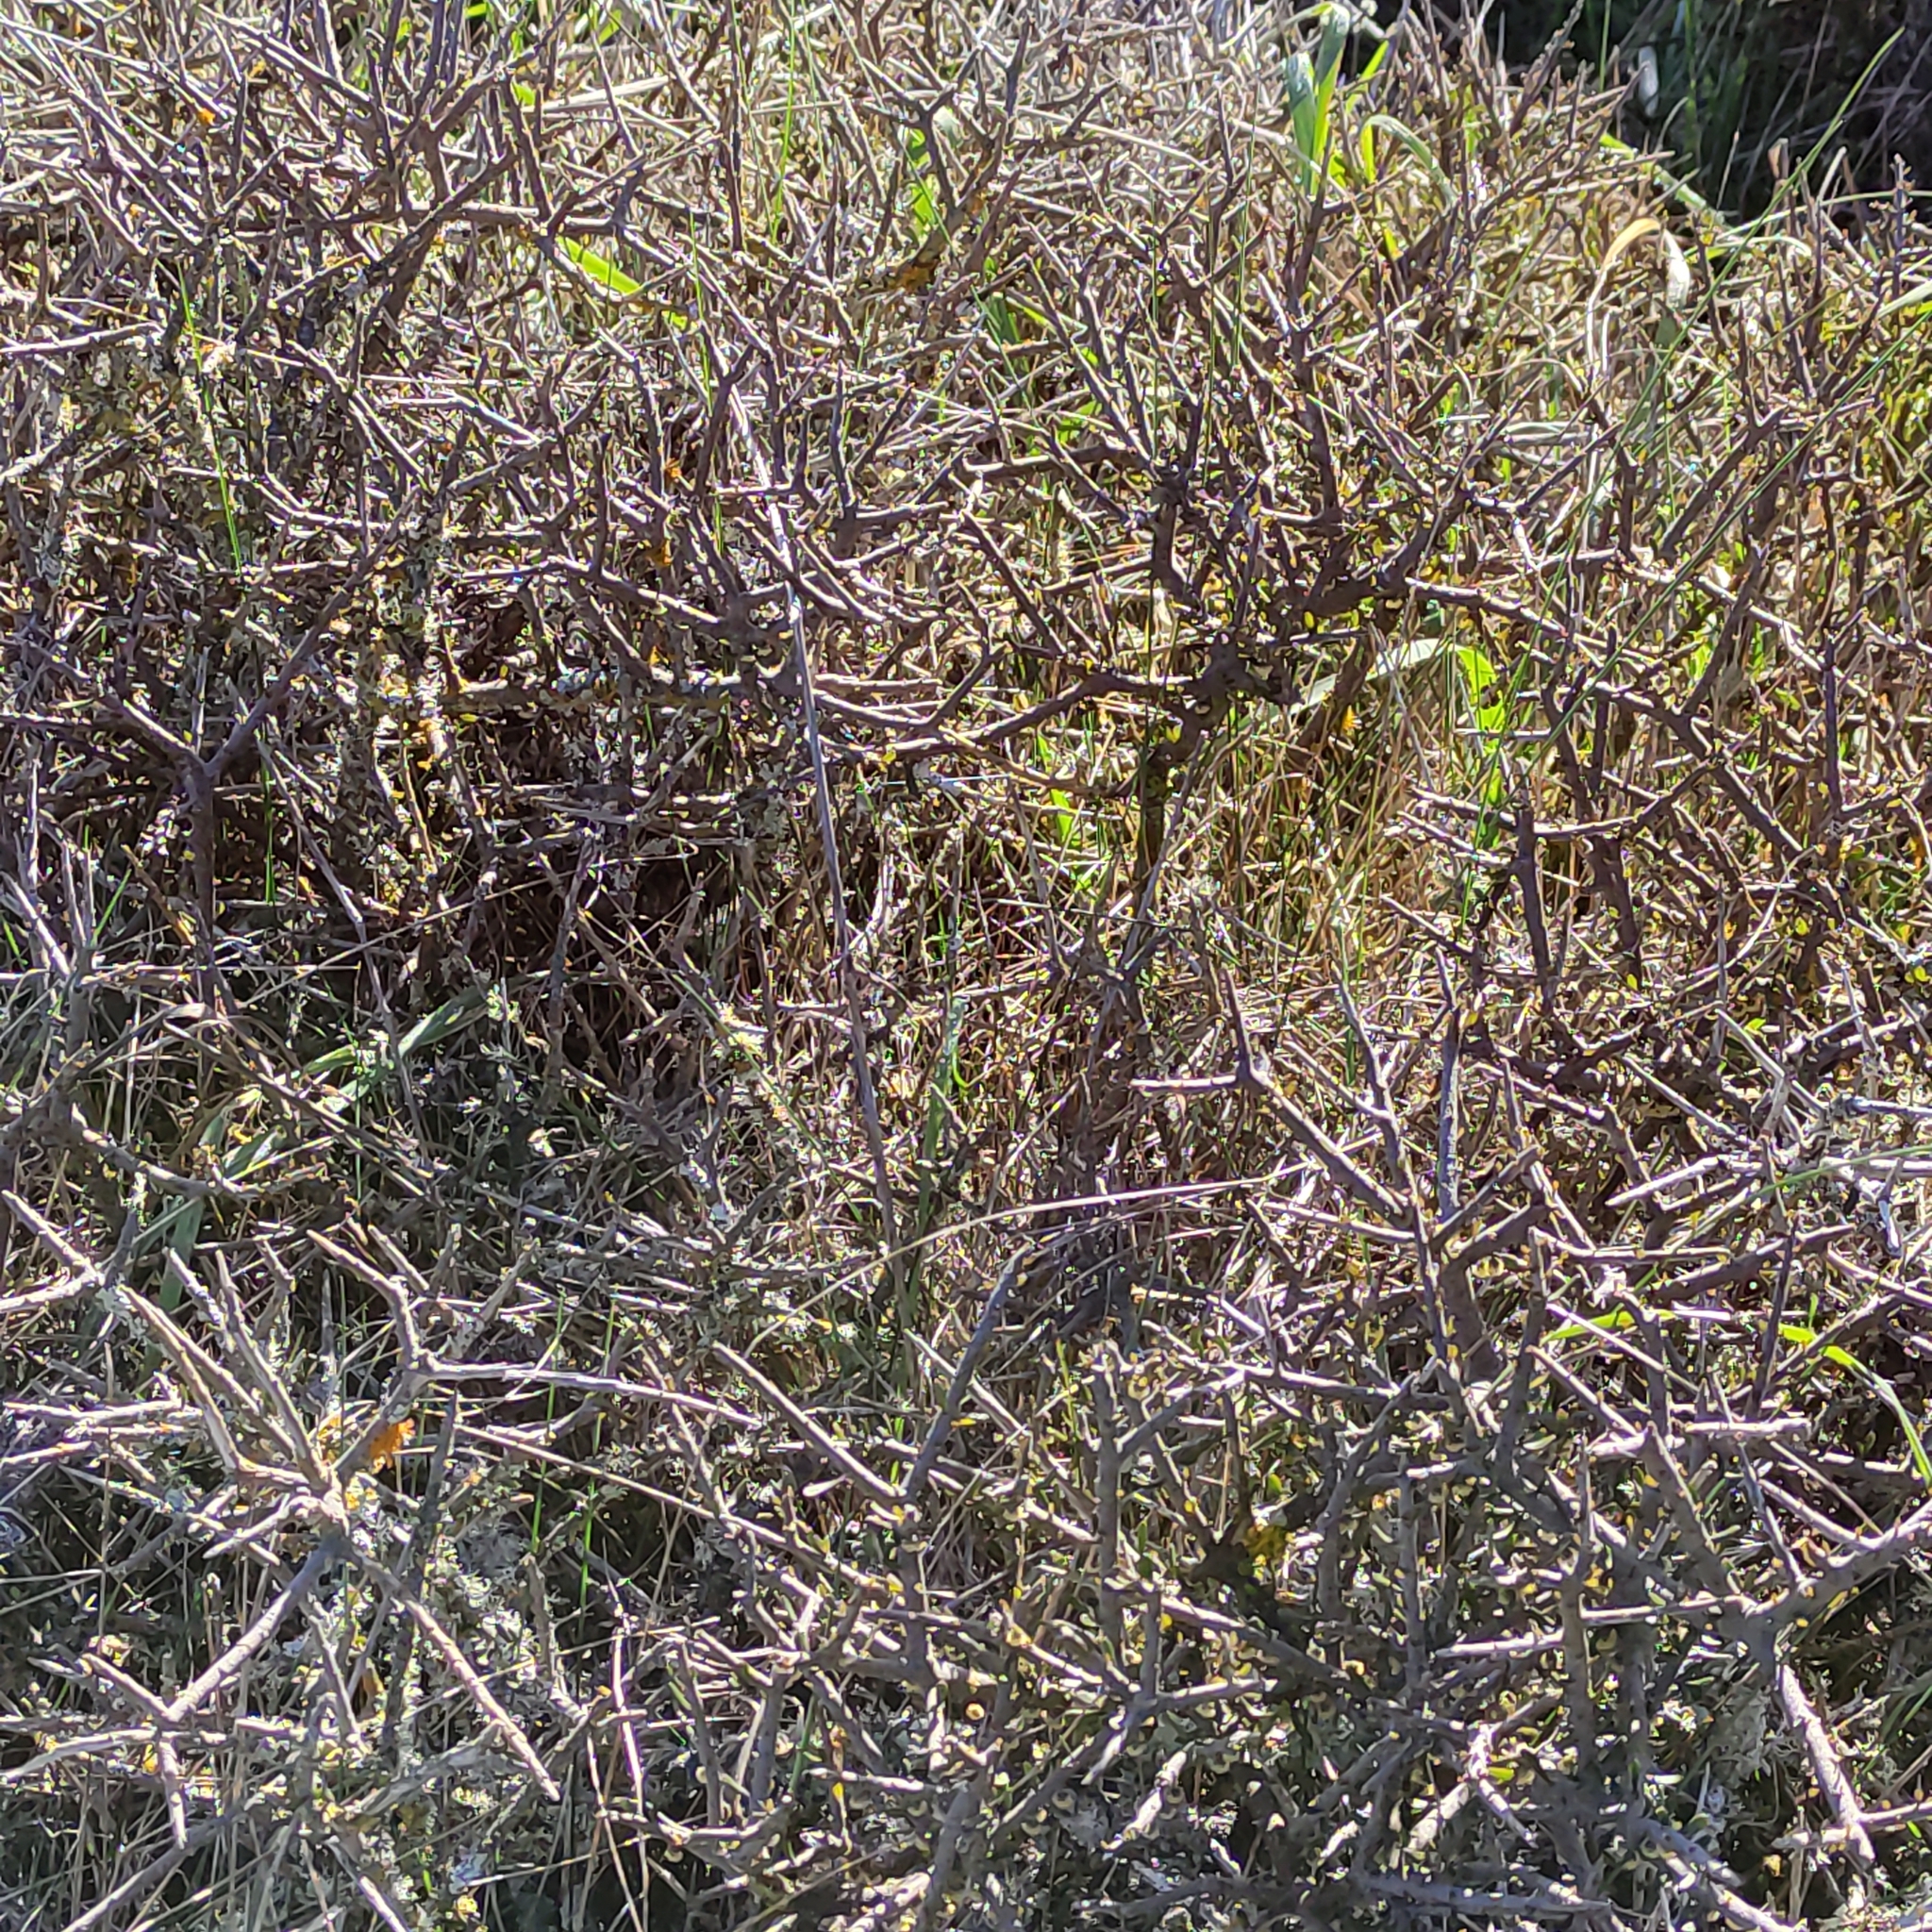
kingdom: Plantae
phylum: Tracheophyta
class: Magnoliopsida
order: Malpighiales
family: Violaceae
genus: Melicytus
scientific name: Melicytus alpinus
